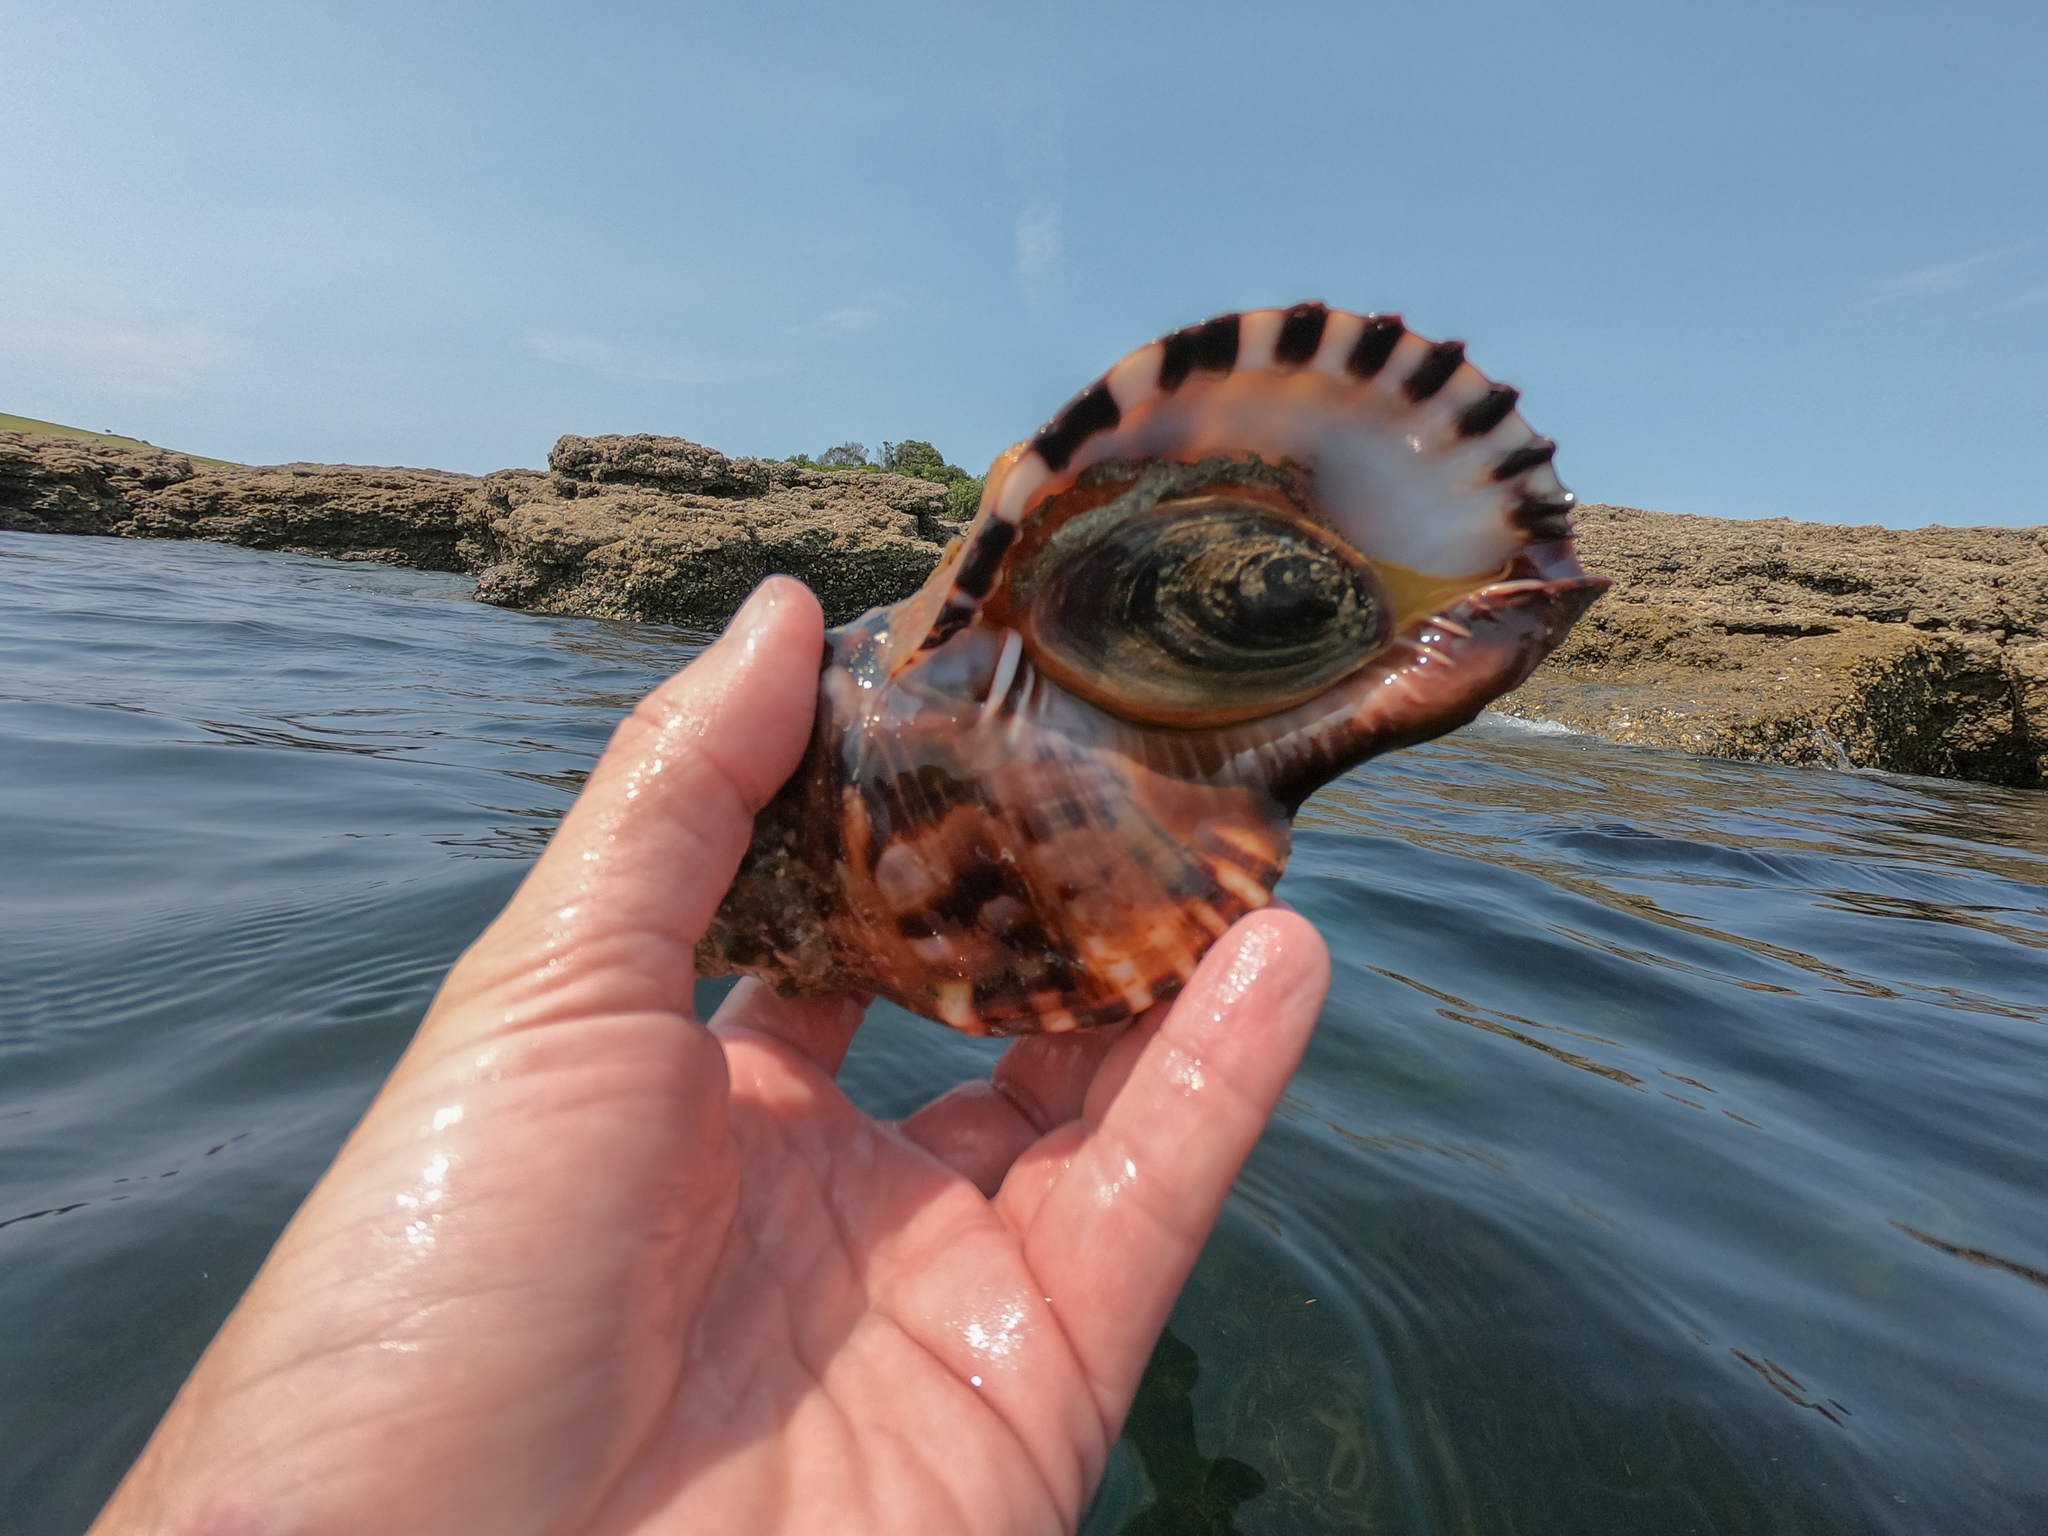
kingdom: Animalia
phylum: Mollusca
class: Gastropoda
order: Littorinimorpha
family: Charoniidae
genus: Charonia
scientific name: Charonia lampas
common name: Knobbed triton
